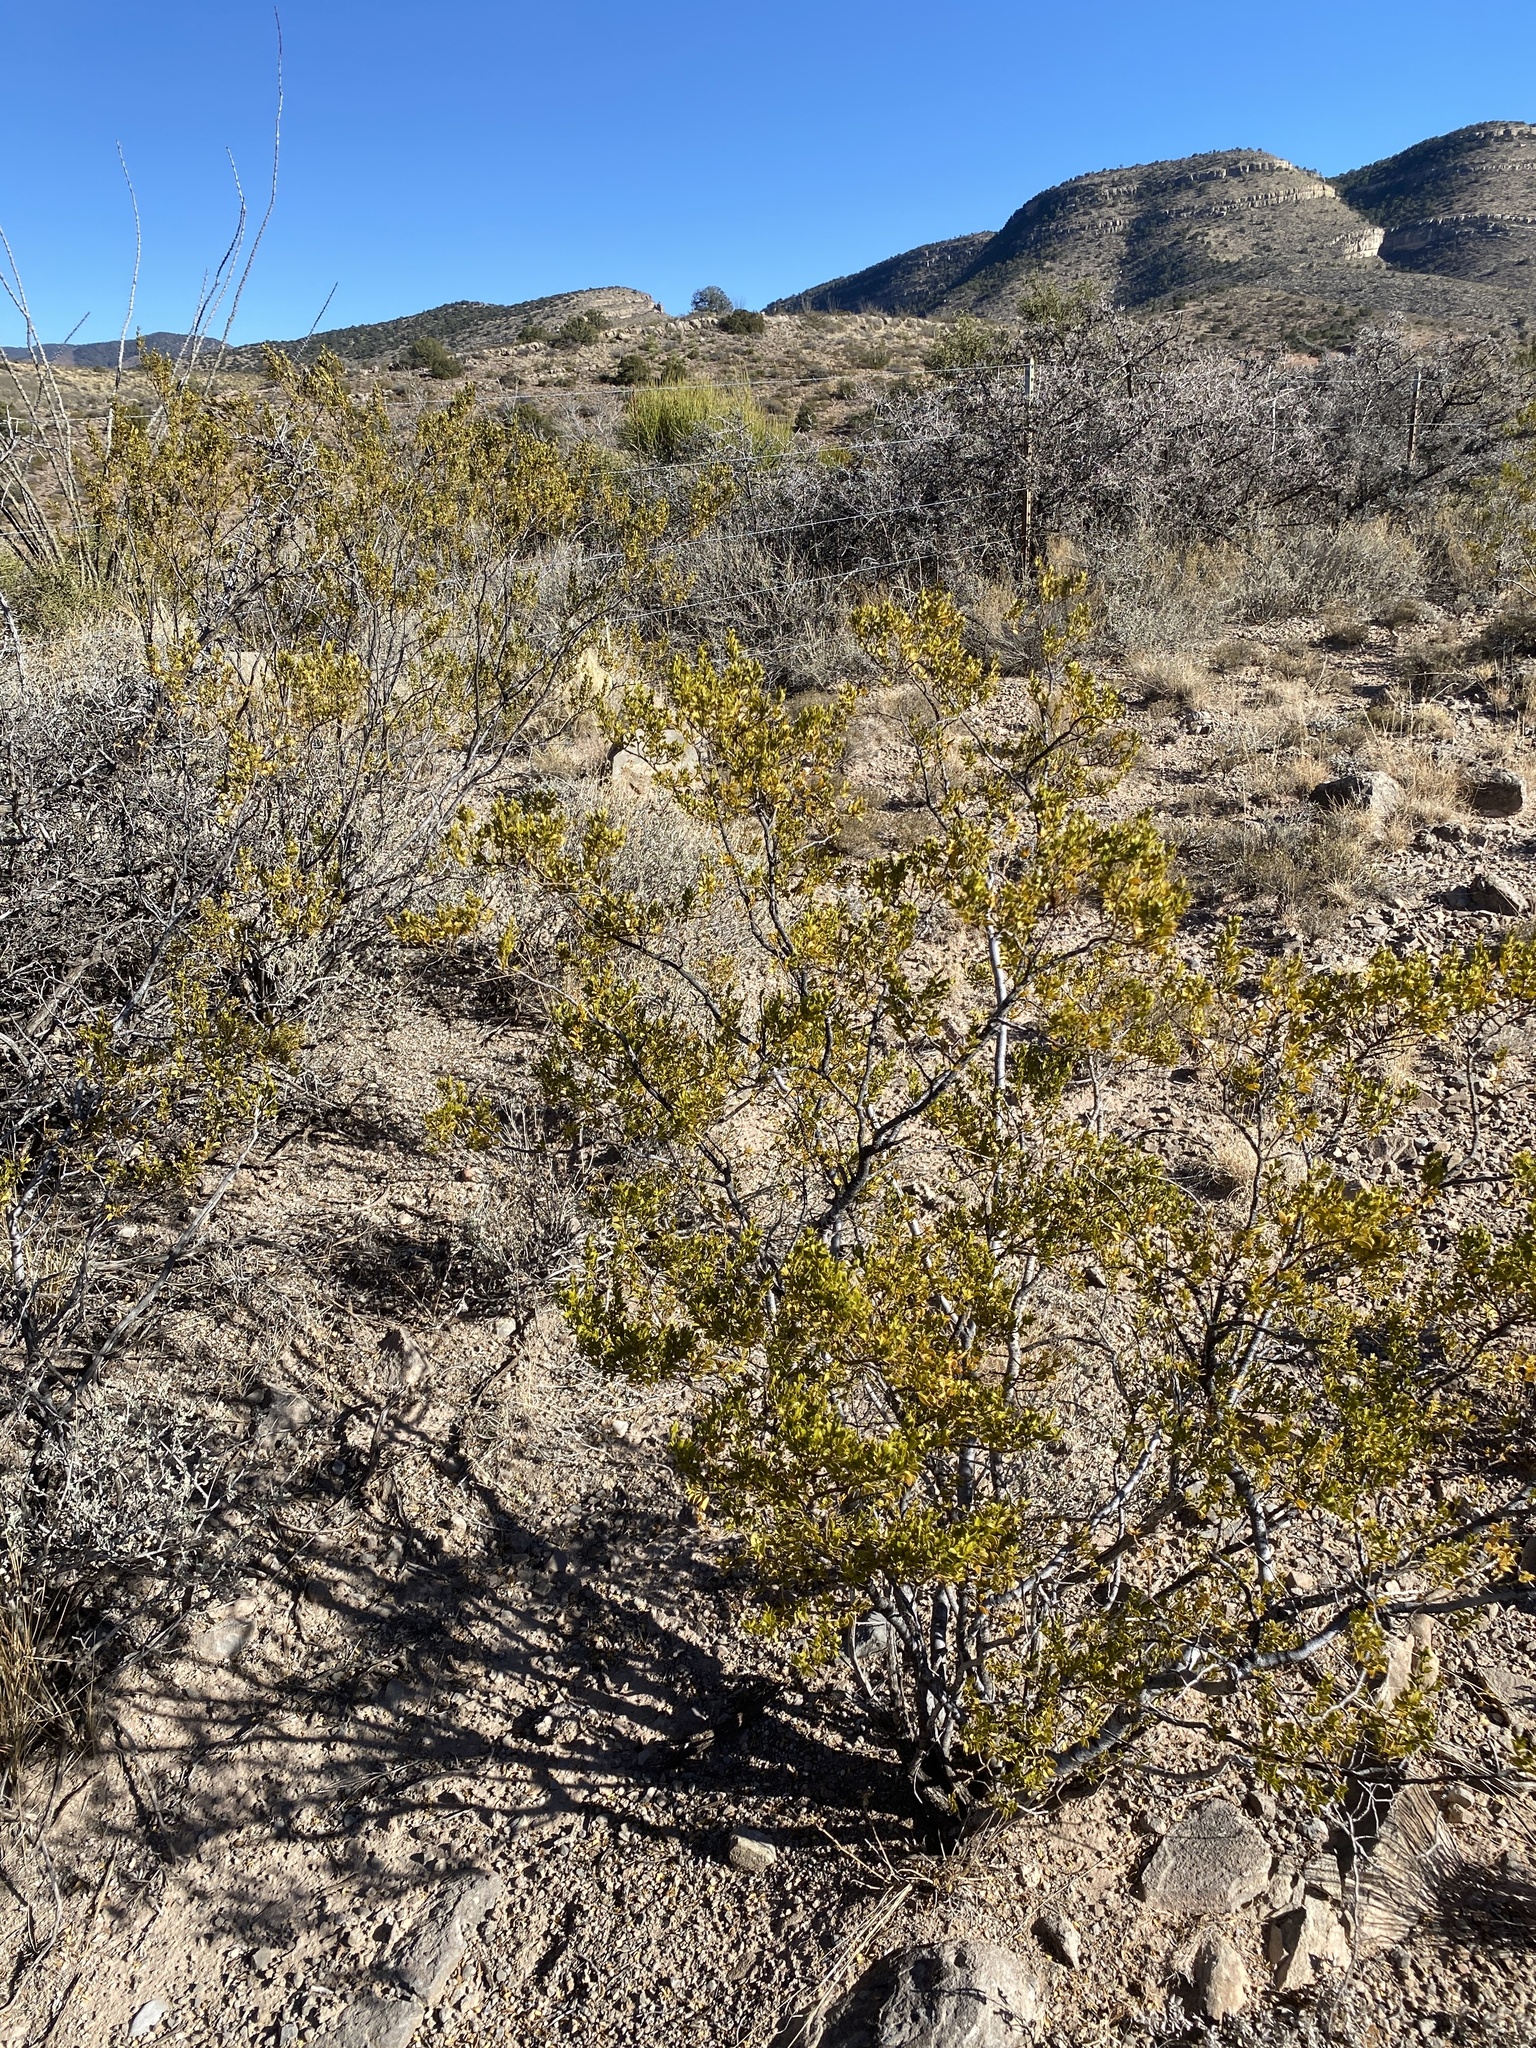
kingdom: Plantae
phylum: Tracheophyta
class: Magnoliopsida
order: Zygophyllales
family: Zygophyllaceae
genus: Larrea
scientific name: Larrea tridentata
